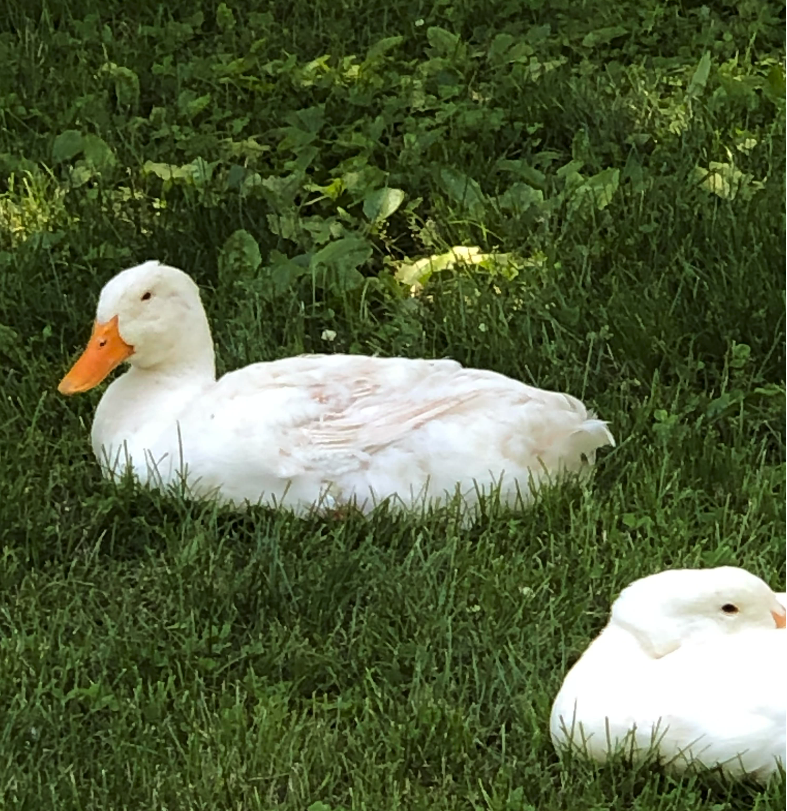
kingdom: Animalia
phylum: Chordata
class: Aves
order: Anseriformes
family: Anatidae
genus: Anas
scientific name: Anas platyrhynchos
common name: Mallard
